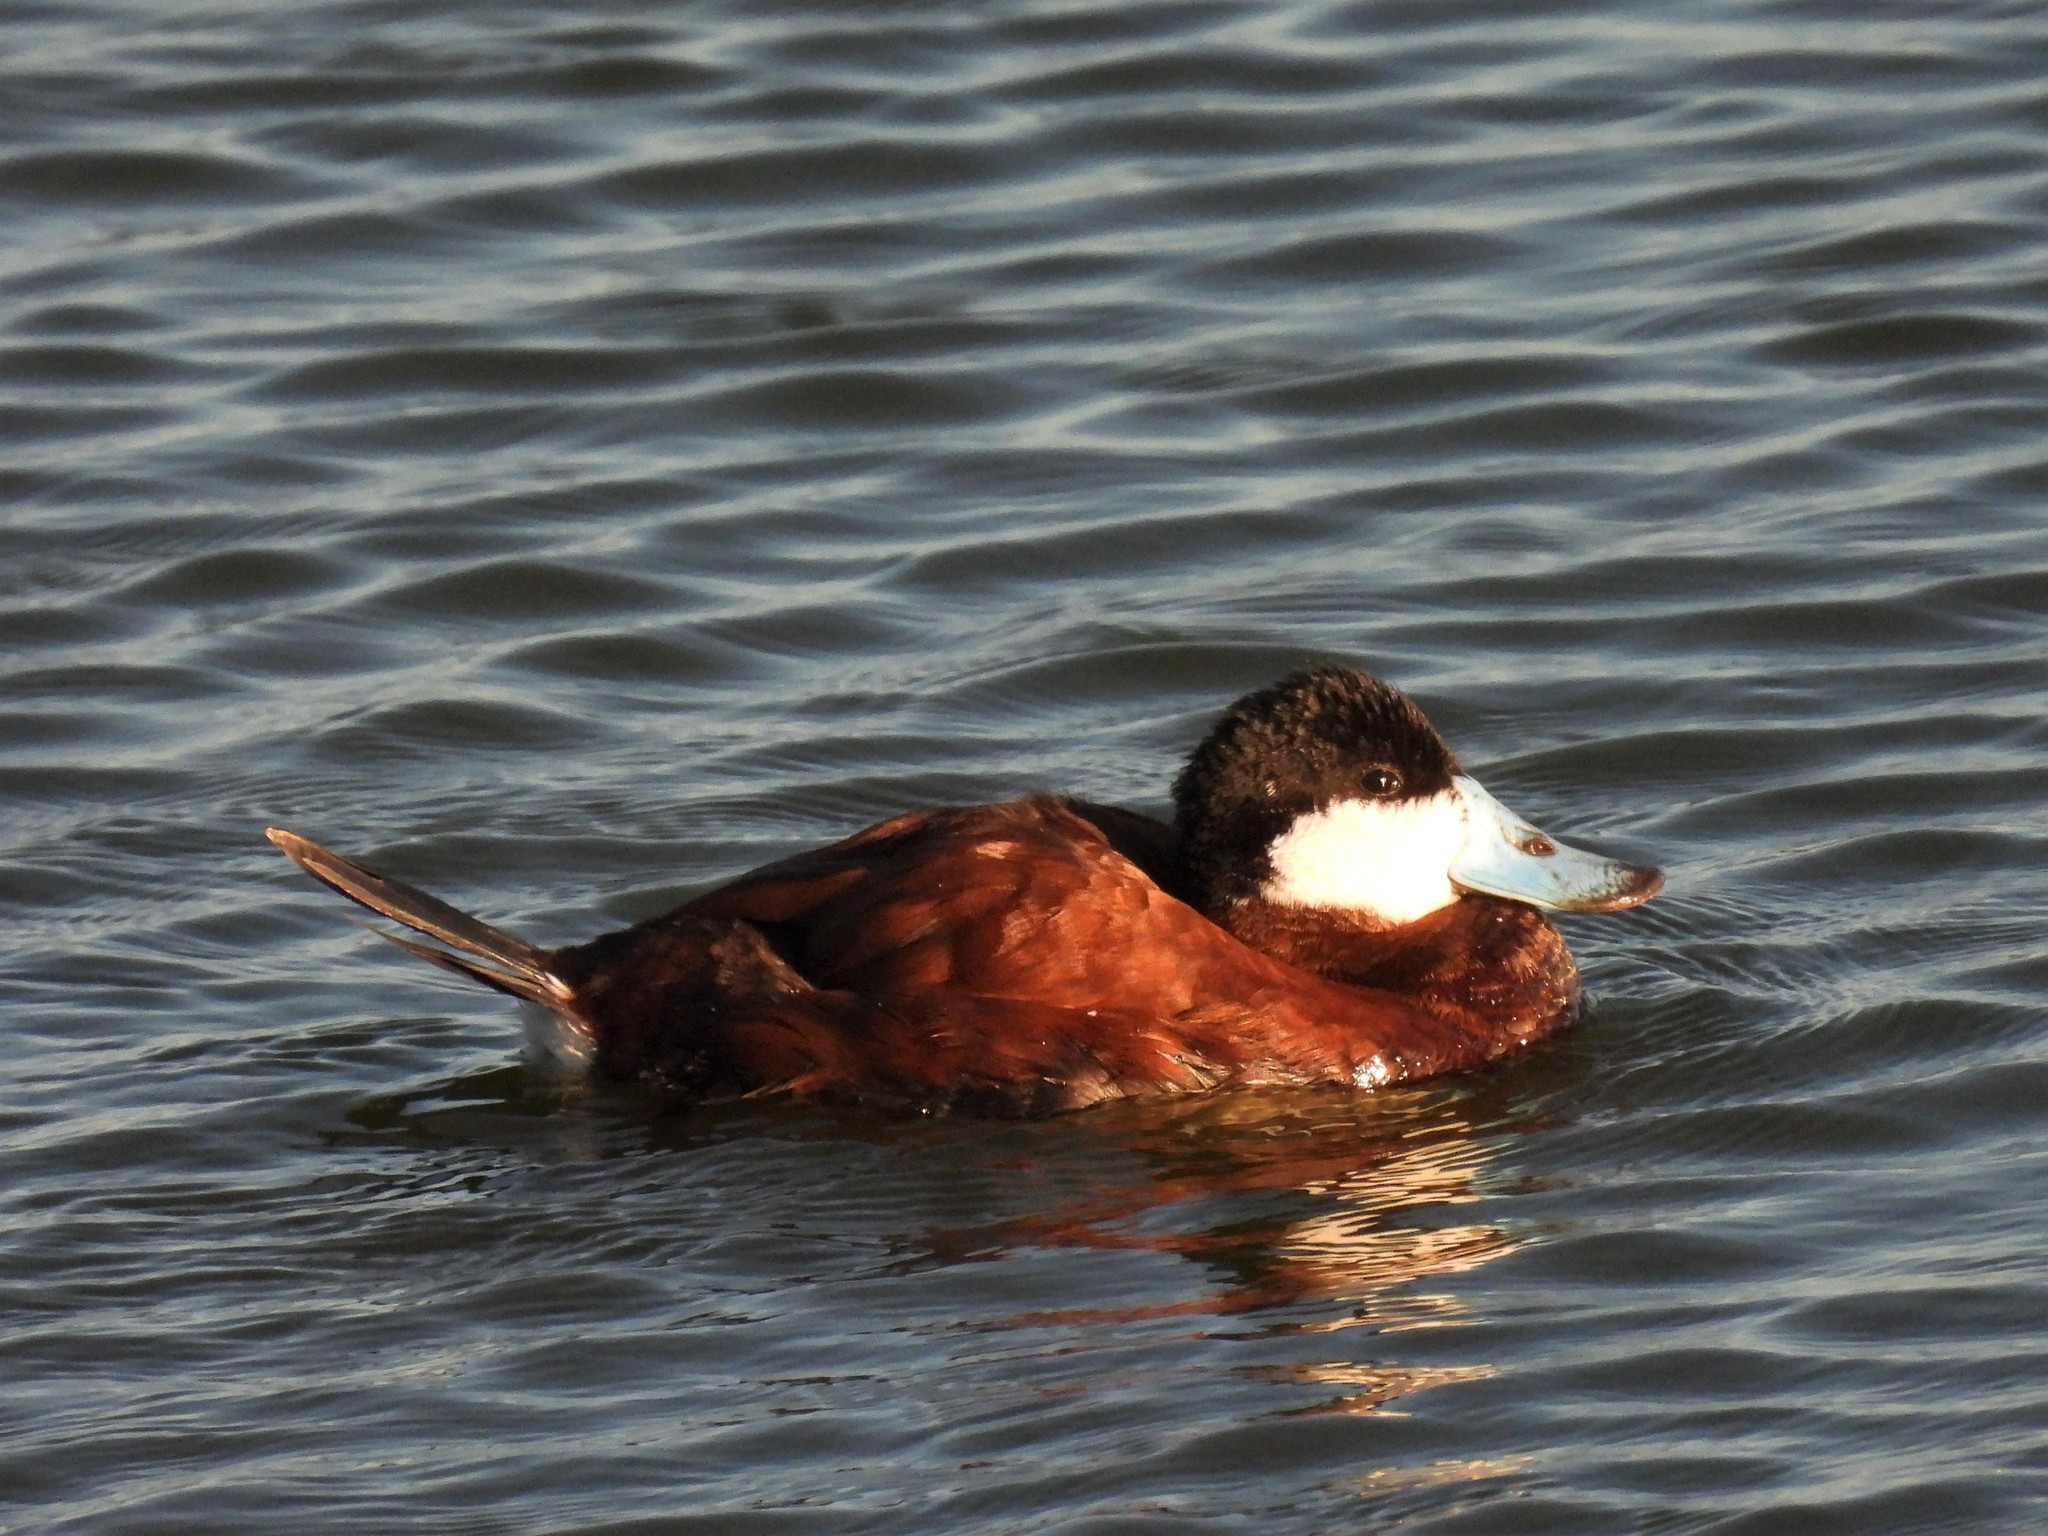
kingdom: Animalia
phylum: Chordata
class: Aves
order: Anseriformes
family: Anatidae
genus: Oxyura
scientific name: Oxyura jamaicensis
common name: Ruddy duck
